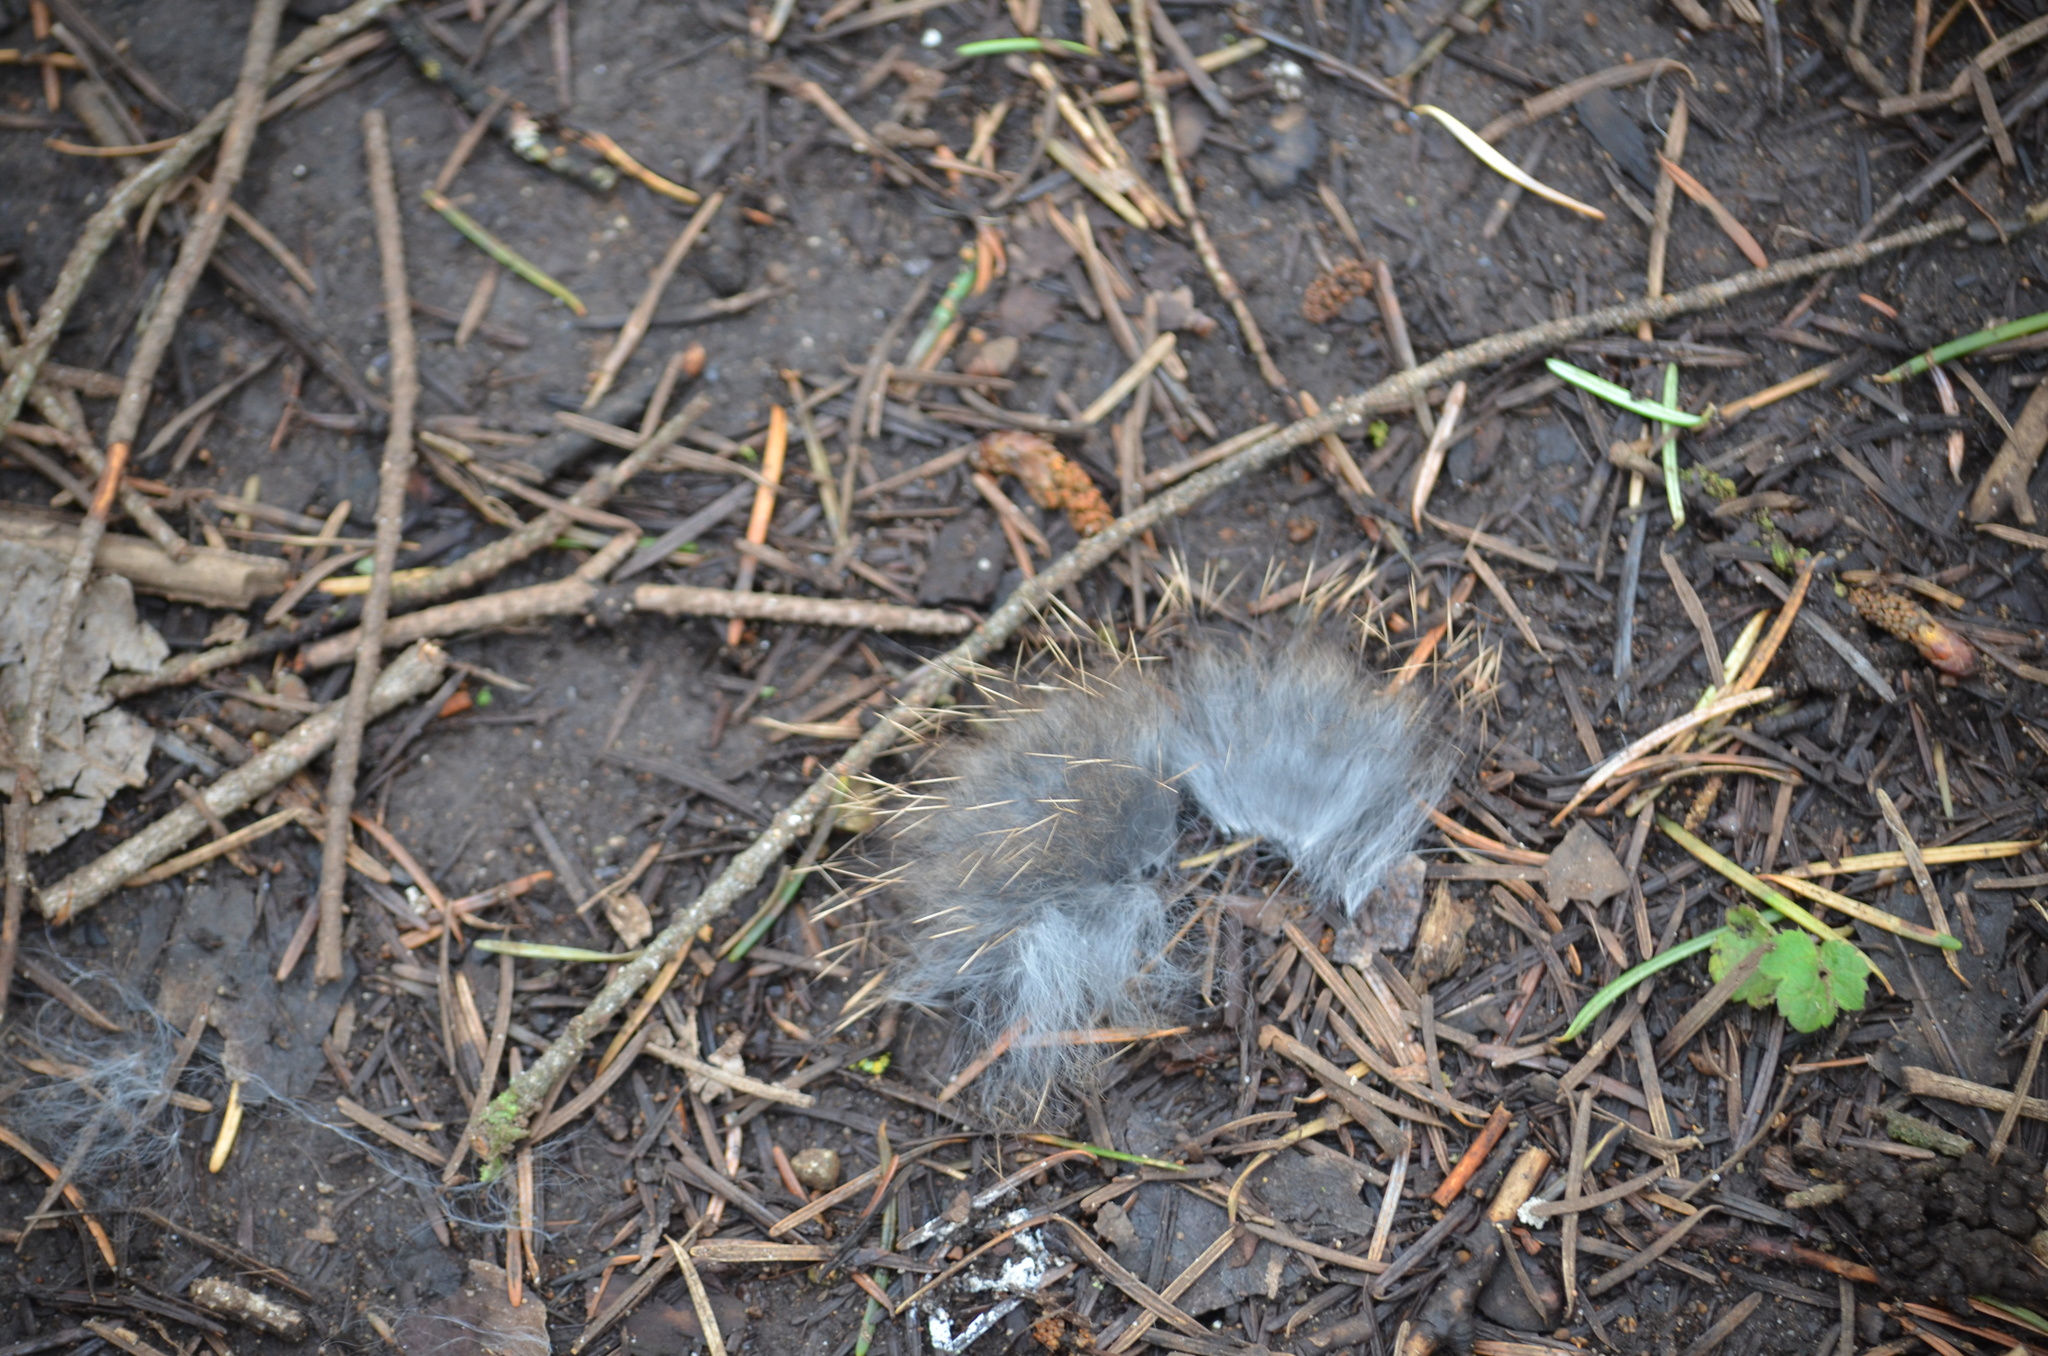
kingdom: Animalia
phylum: Chordata
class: Mammalia
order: Lagomorpha
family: Leporidae
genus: Sylvilagus
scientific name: Sylvilagus floridanus
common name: Eastern cottontail
